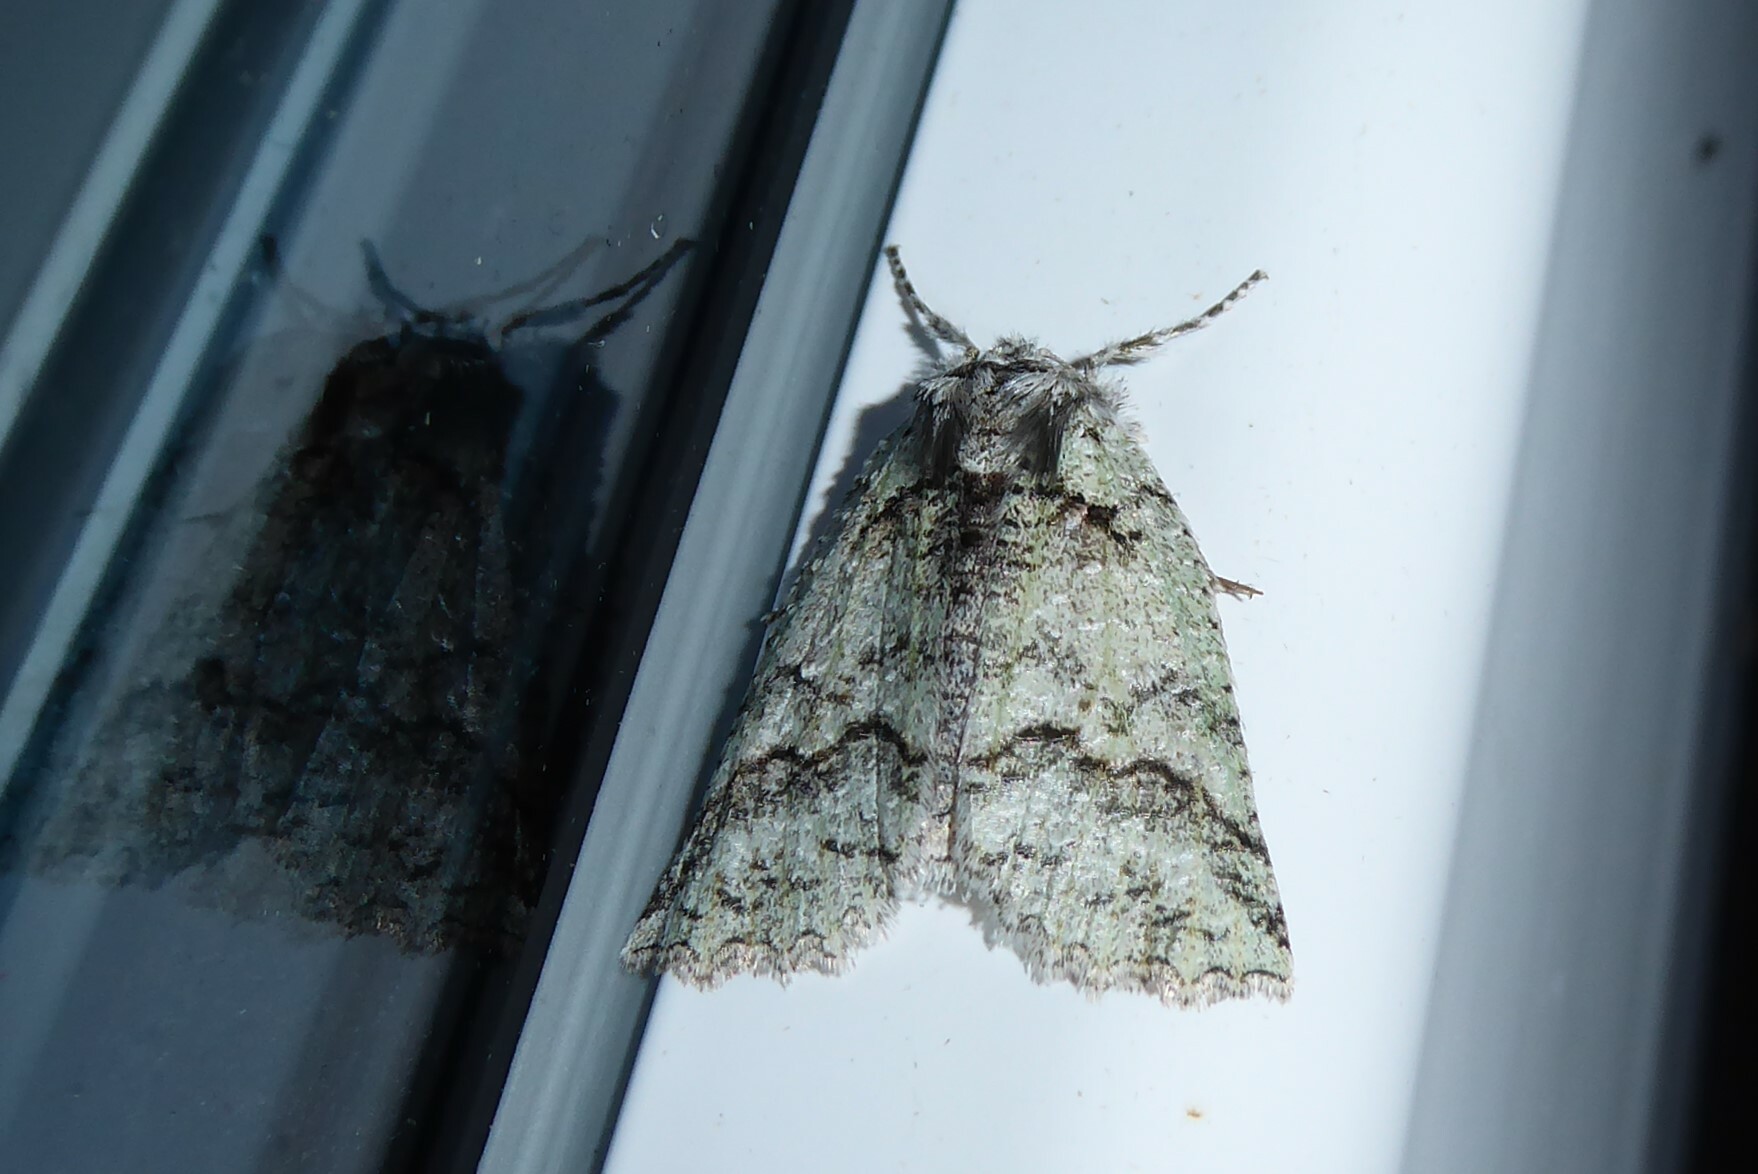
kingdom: Animalia
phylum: Arthropoda
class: Insecta
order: Lepidoptera
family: Geometridae
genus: Declana
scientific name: Declana floccosa
